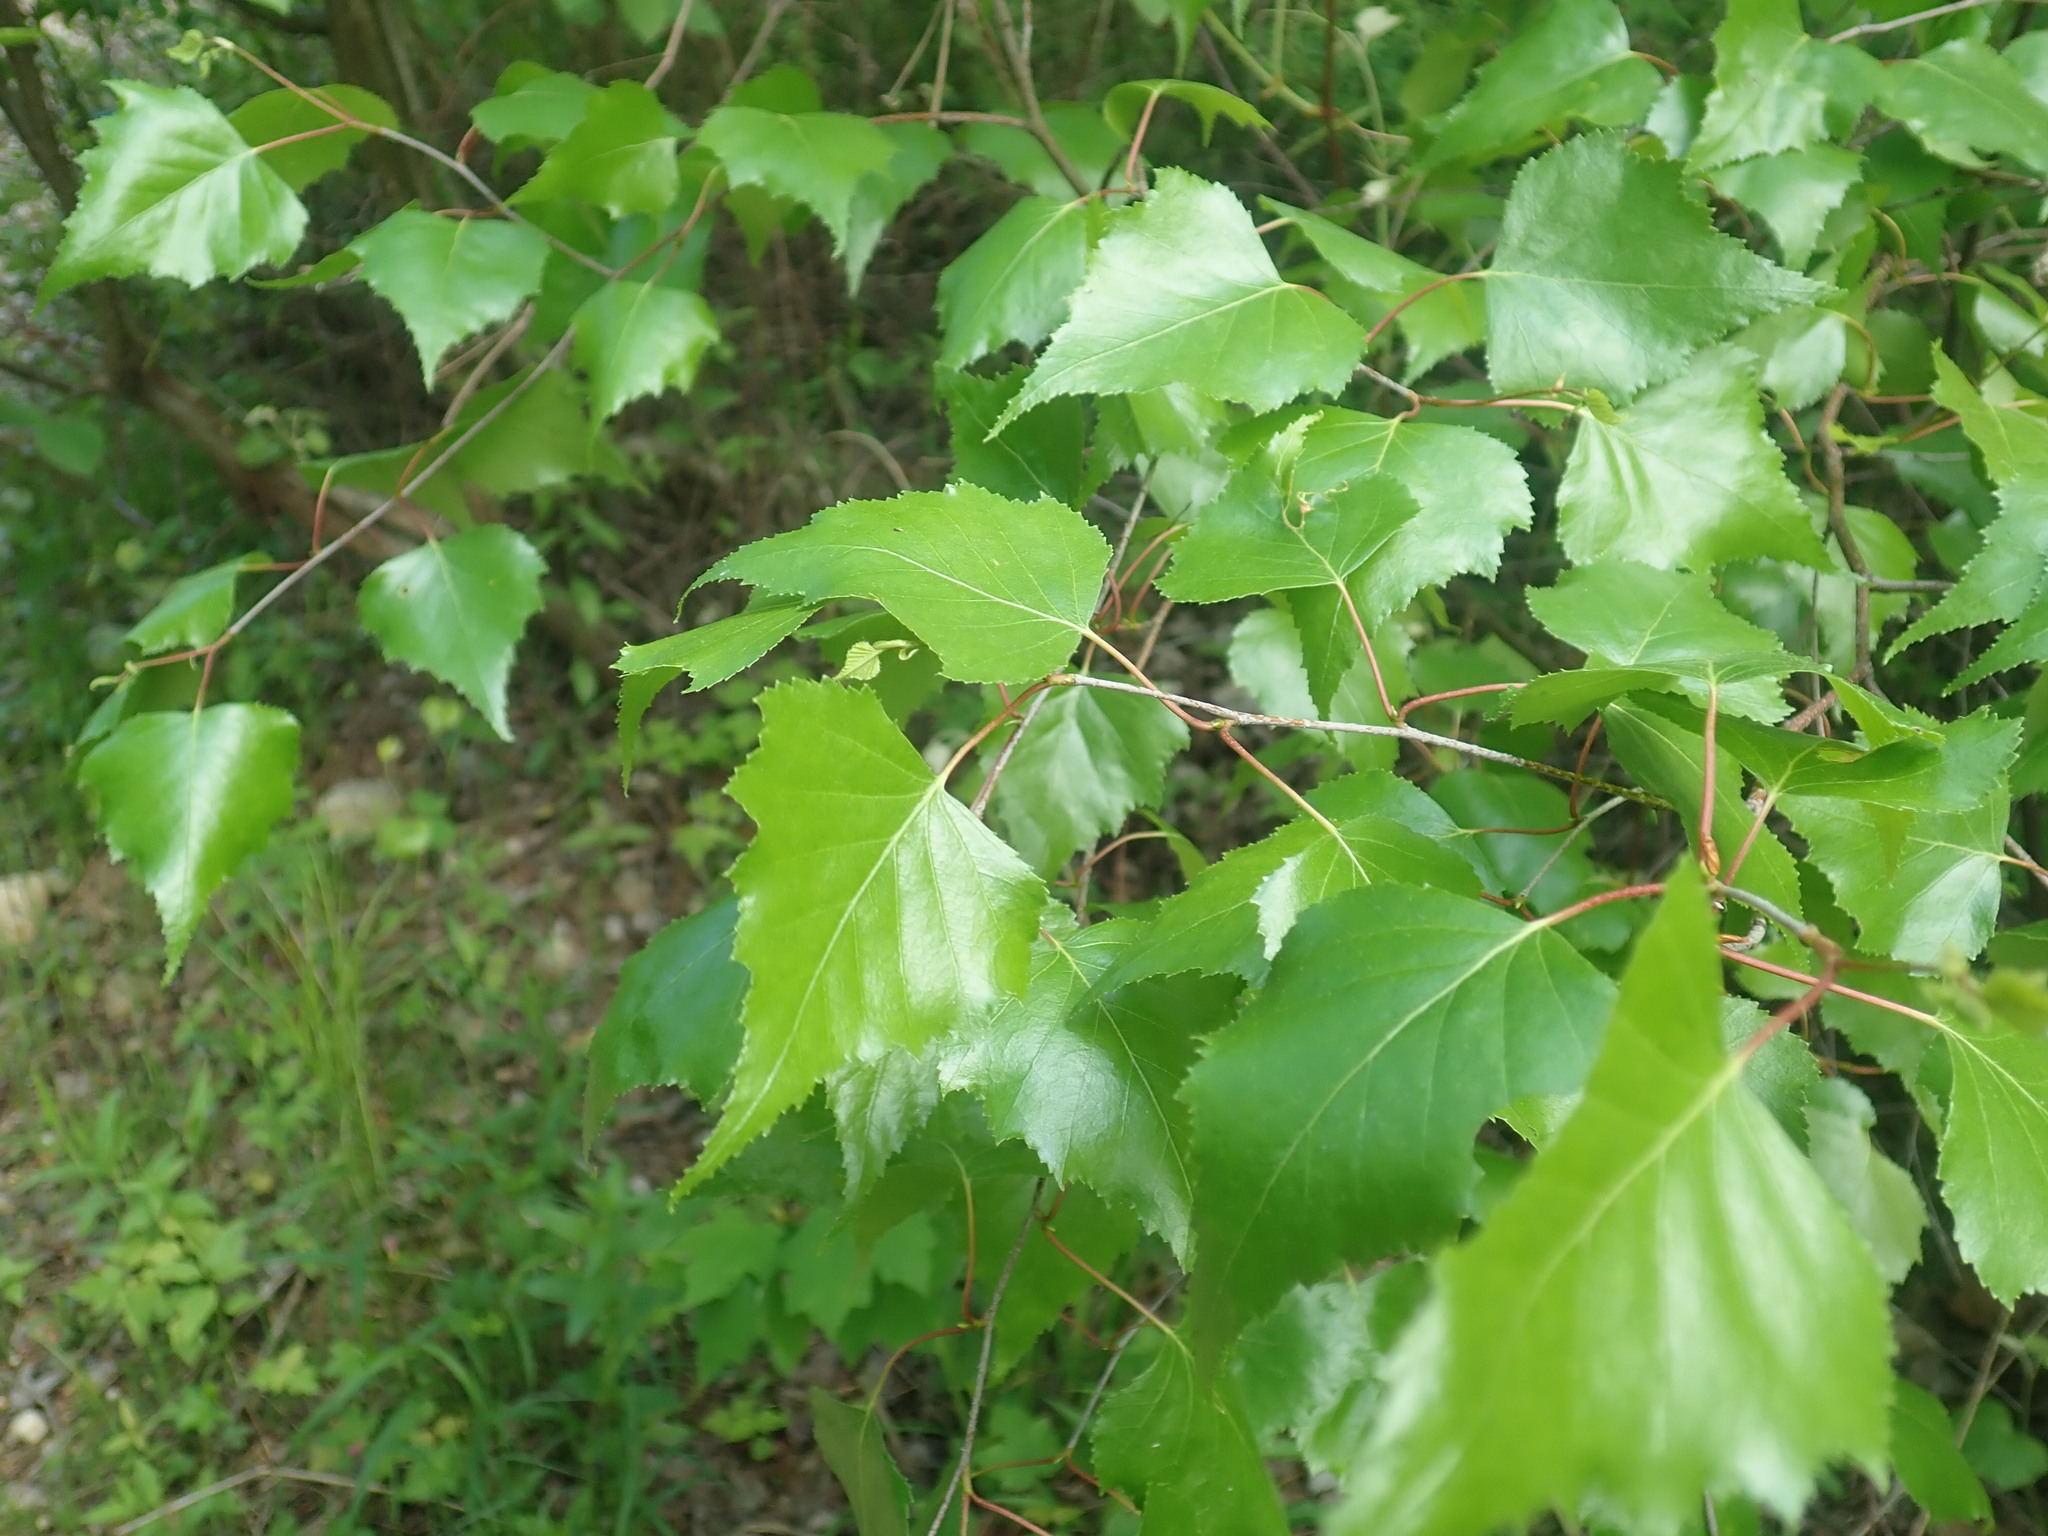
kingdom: Plantae
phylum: Tracheophyta
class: Magnoliopsida
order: Fagales
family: Betulaceae
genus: Betula
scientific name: Betula populifolia
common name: Fire birch
